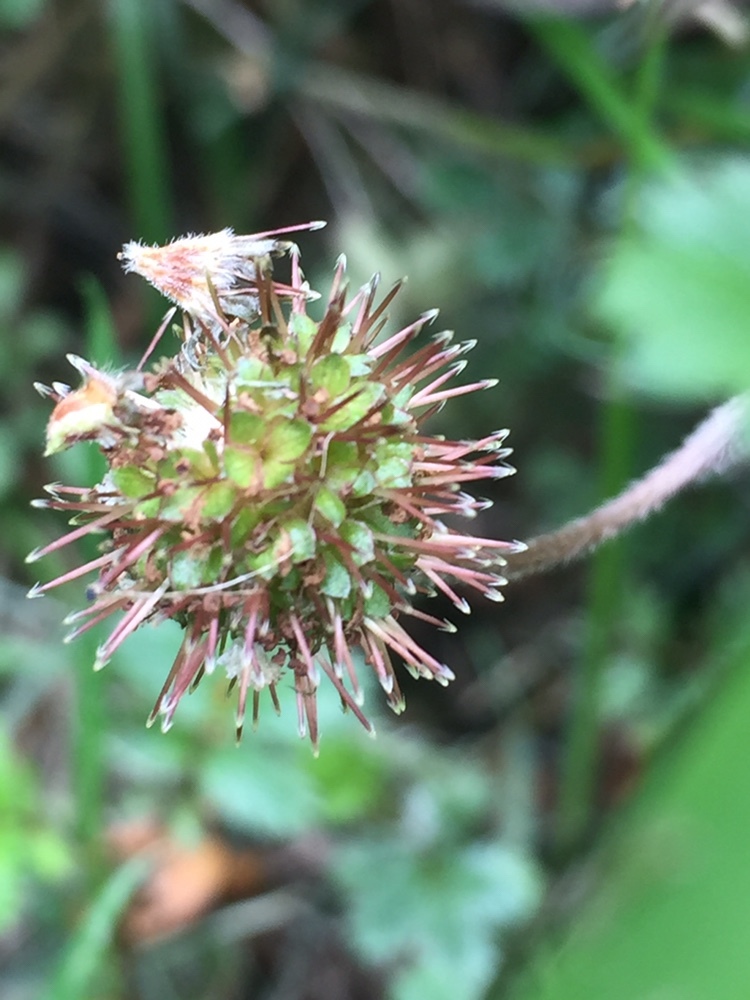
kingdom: Plantae
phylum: Tracheophyta
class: Magnoliopsida
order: Rosales
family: Rosaceae
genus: Acaena
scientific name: Acaena anserinifolia
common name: Bronze pirri-pirri-bur
